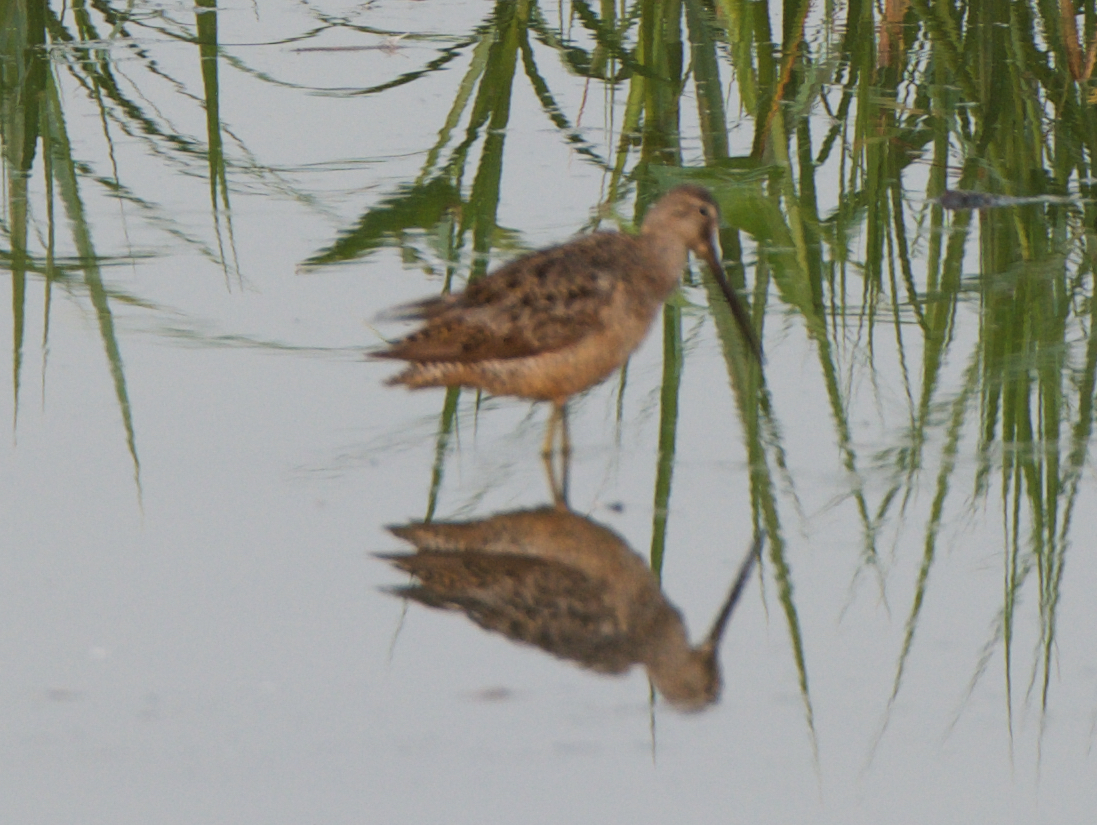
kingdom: Animalia
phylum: Chordata
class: Aves
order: Charadriiformes
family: Scolopacidae
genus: Limnodromus
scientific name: Limnodromus scolopaceus
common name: Long-billed dowitcher
